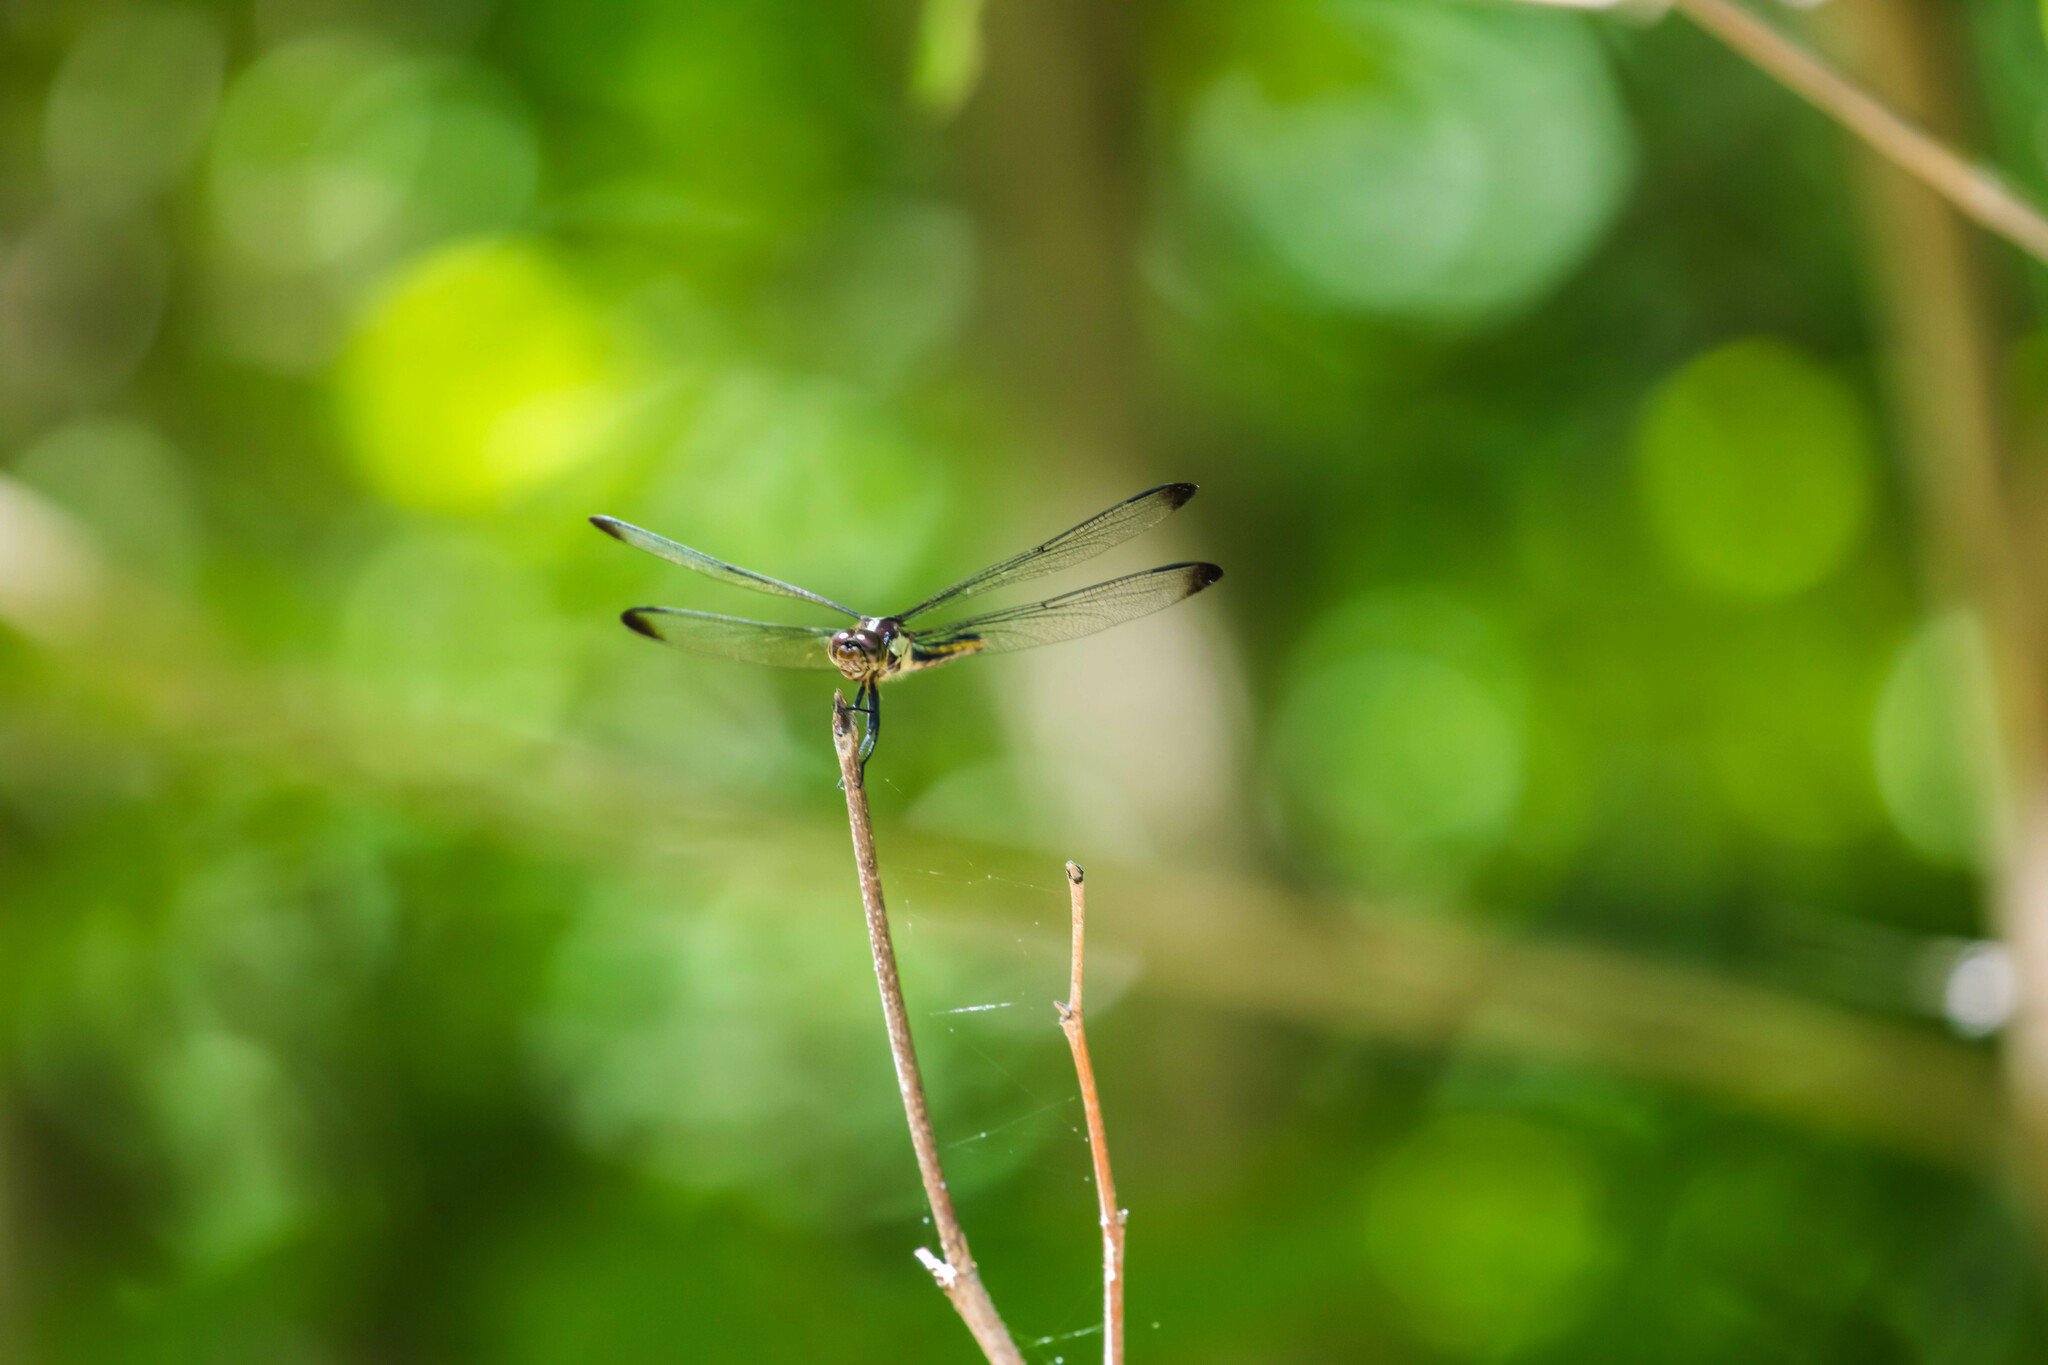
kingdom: Animalia
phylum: Arthropoda
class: Insecta
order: Odonata
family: Libellulidae
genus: Libellula
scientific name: Libellula incesta
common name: Slaty skimmer
